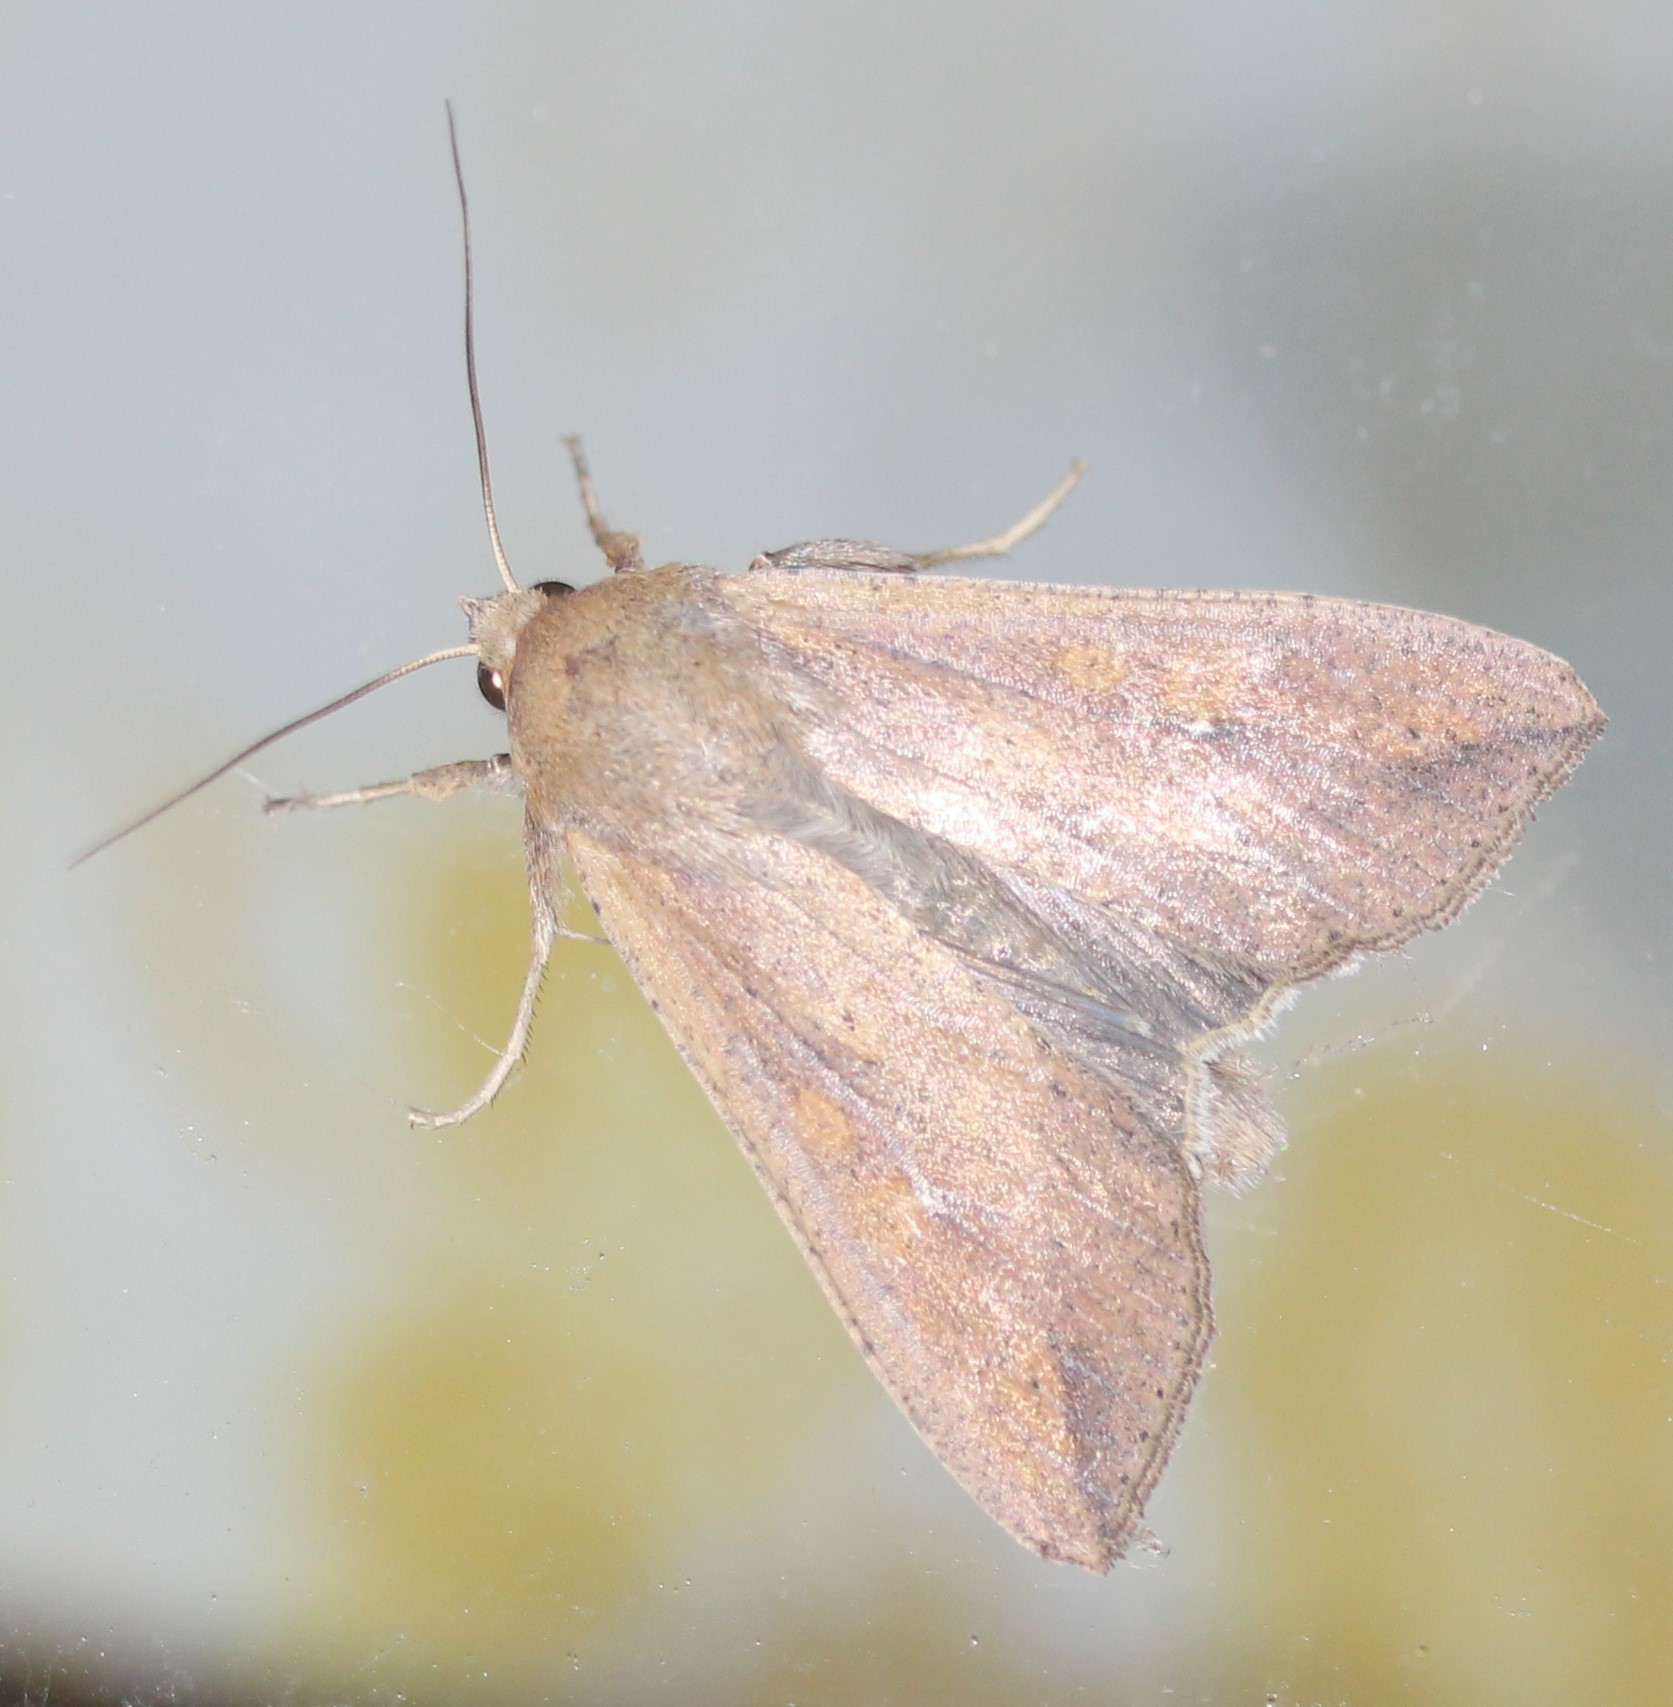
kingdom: Animalia
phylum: Arthropoda
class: Insecta
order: Lepidoptera
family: Noctuidae
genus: Mythimna
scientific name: Mythimna unipuncta
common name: White-speck
